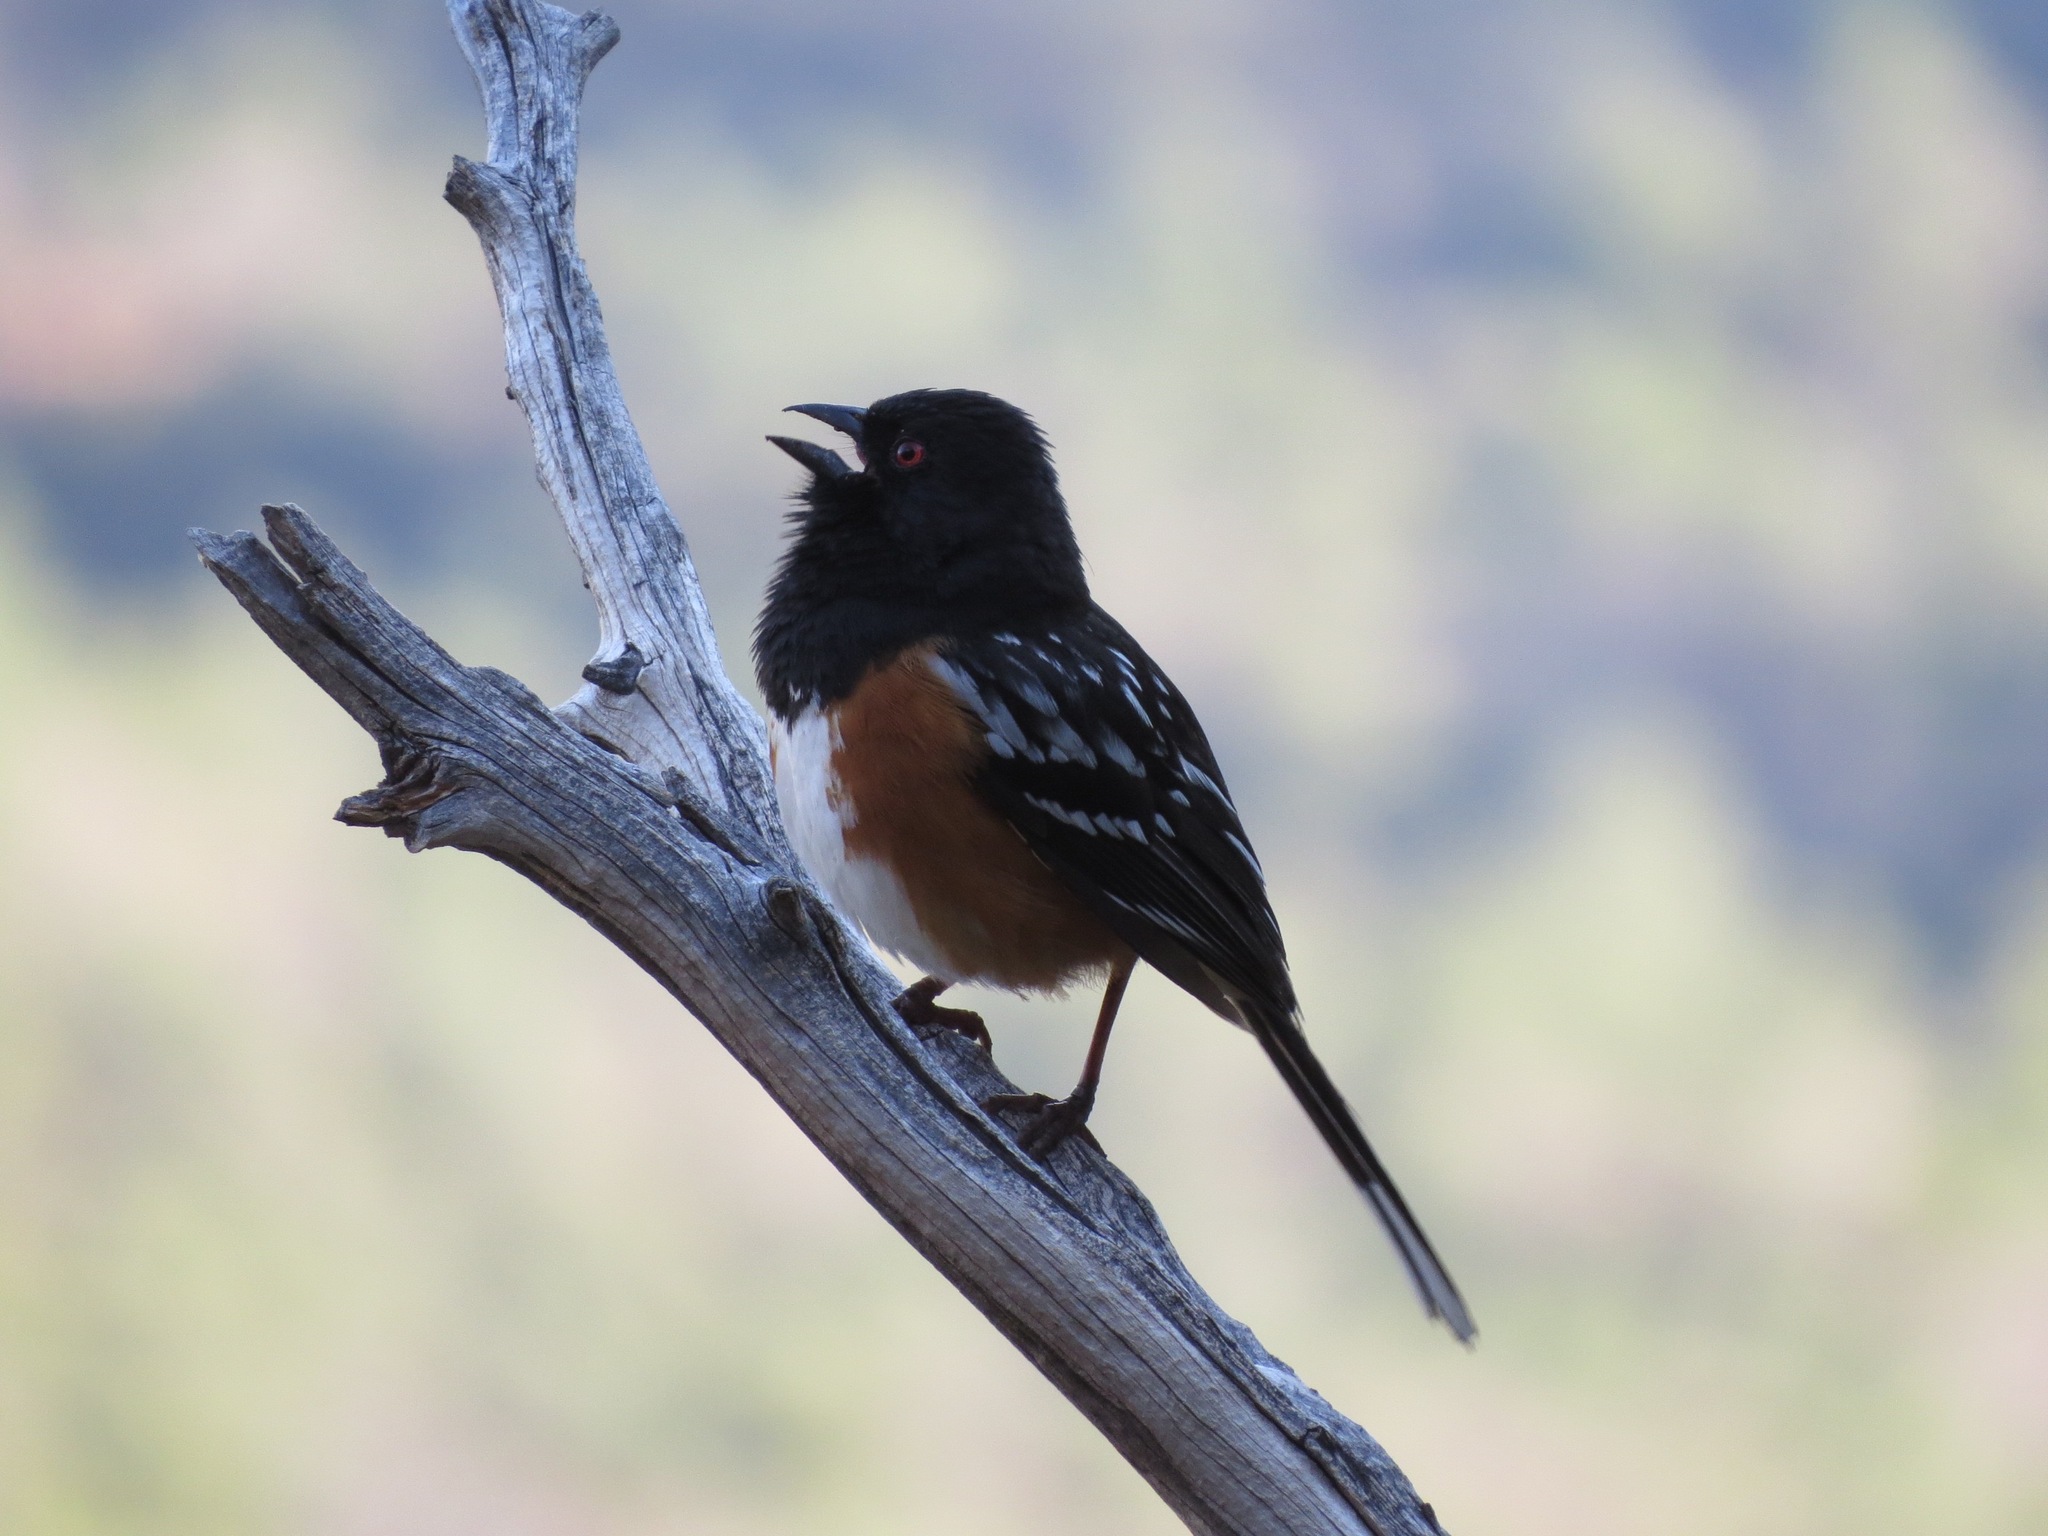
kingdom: Animalia
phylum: Chordata
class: Aves
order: Passeriformes
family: Passerellidae
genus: Pipilo
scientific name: Pipilo maculatus
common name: Spotted towhee
